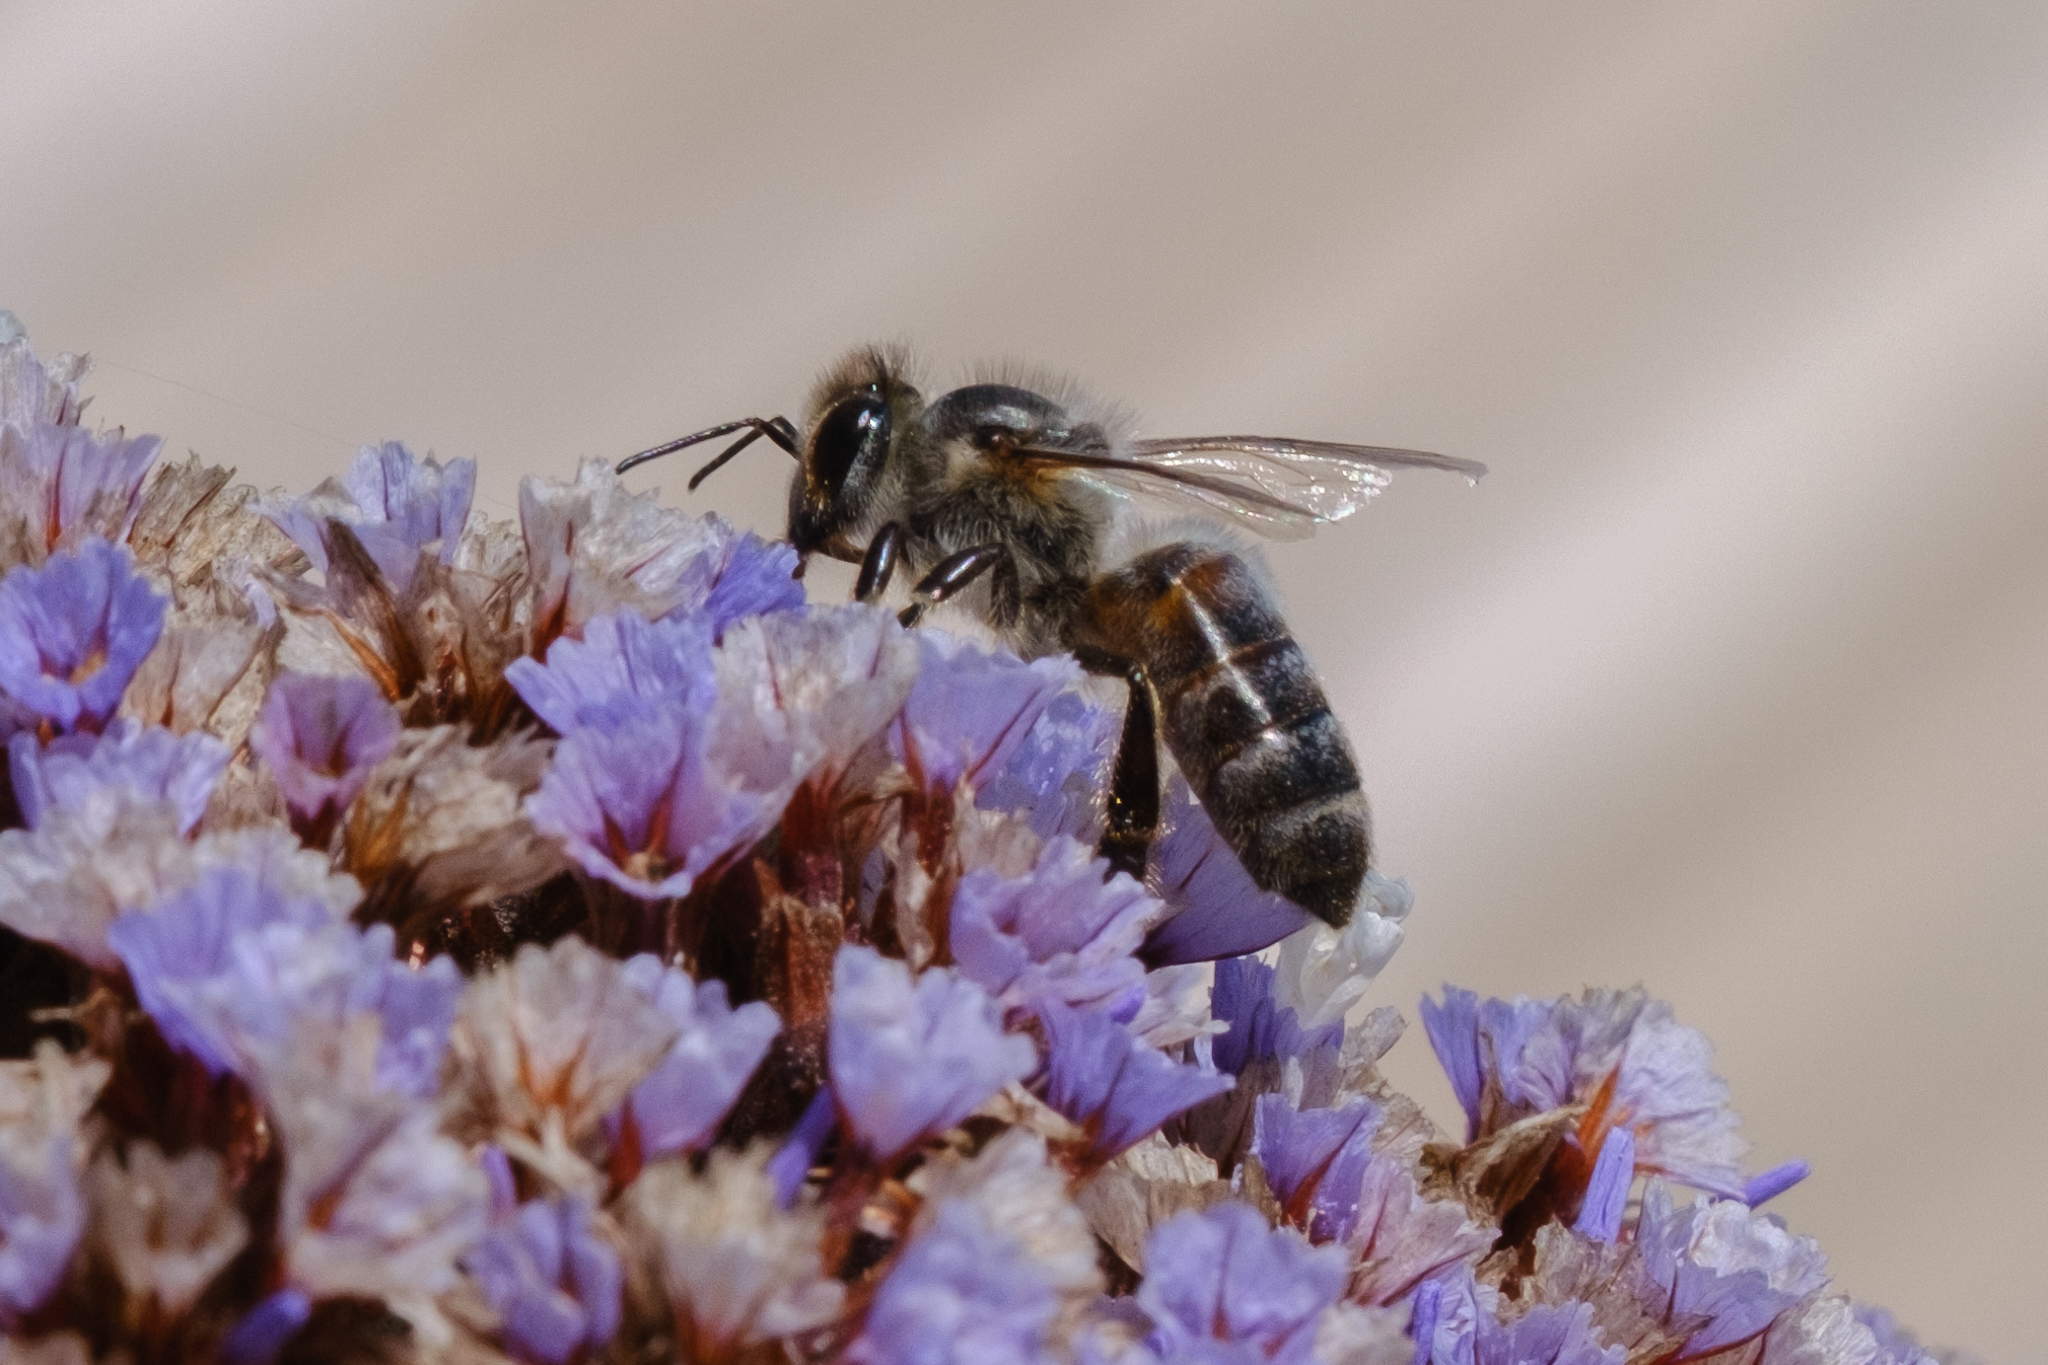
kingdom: Animalia
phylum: Arthropoda
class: Insecta
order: Hymenoptera
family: Apidae
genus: Apis
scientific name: Apis mellifera
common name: Honey bee
